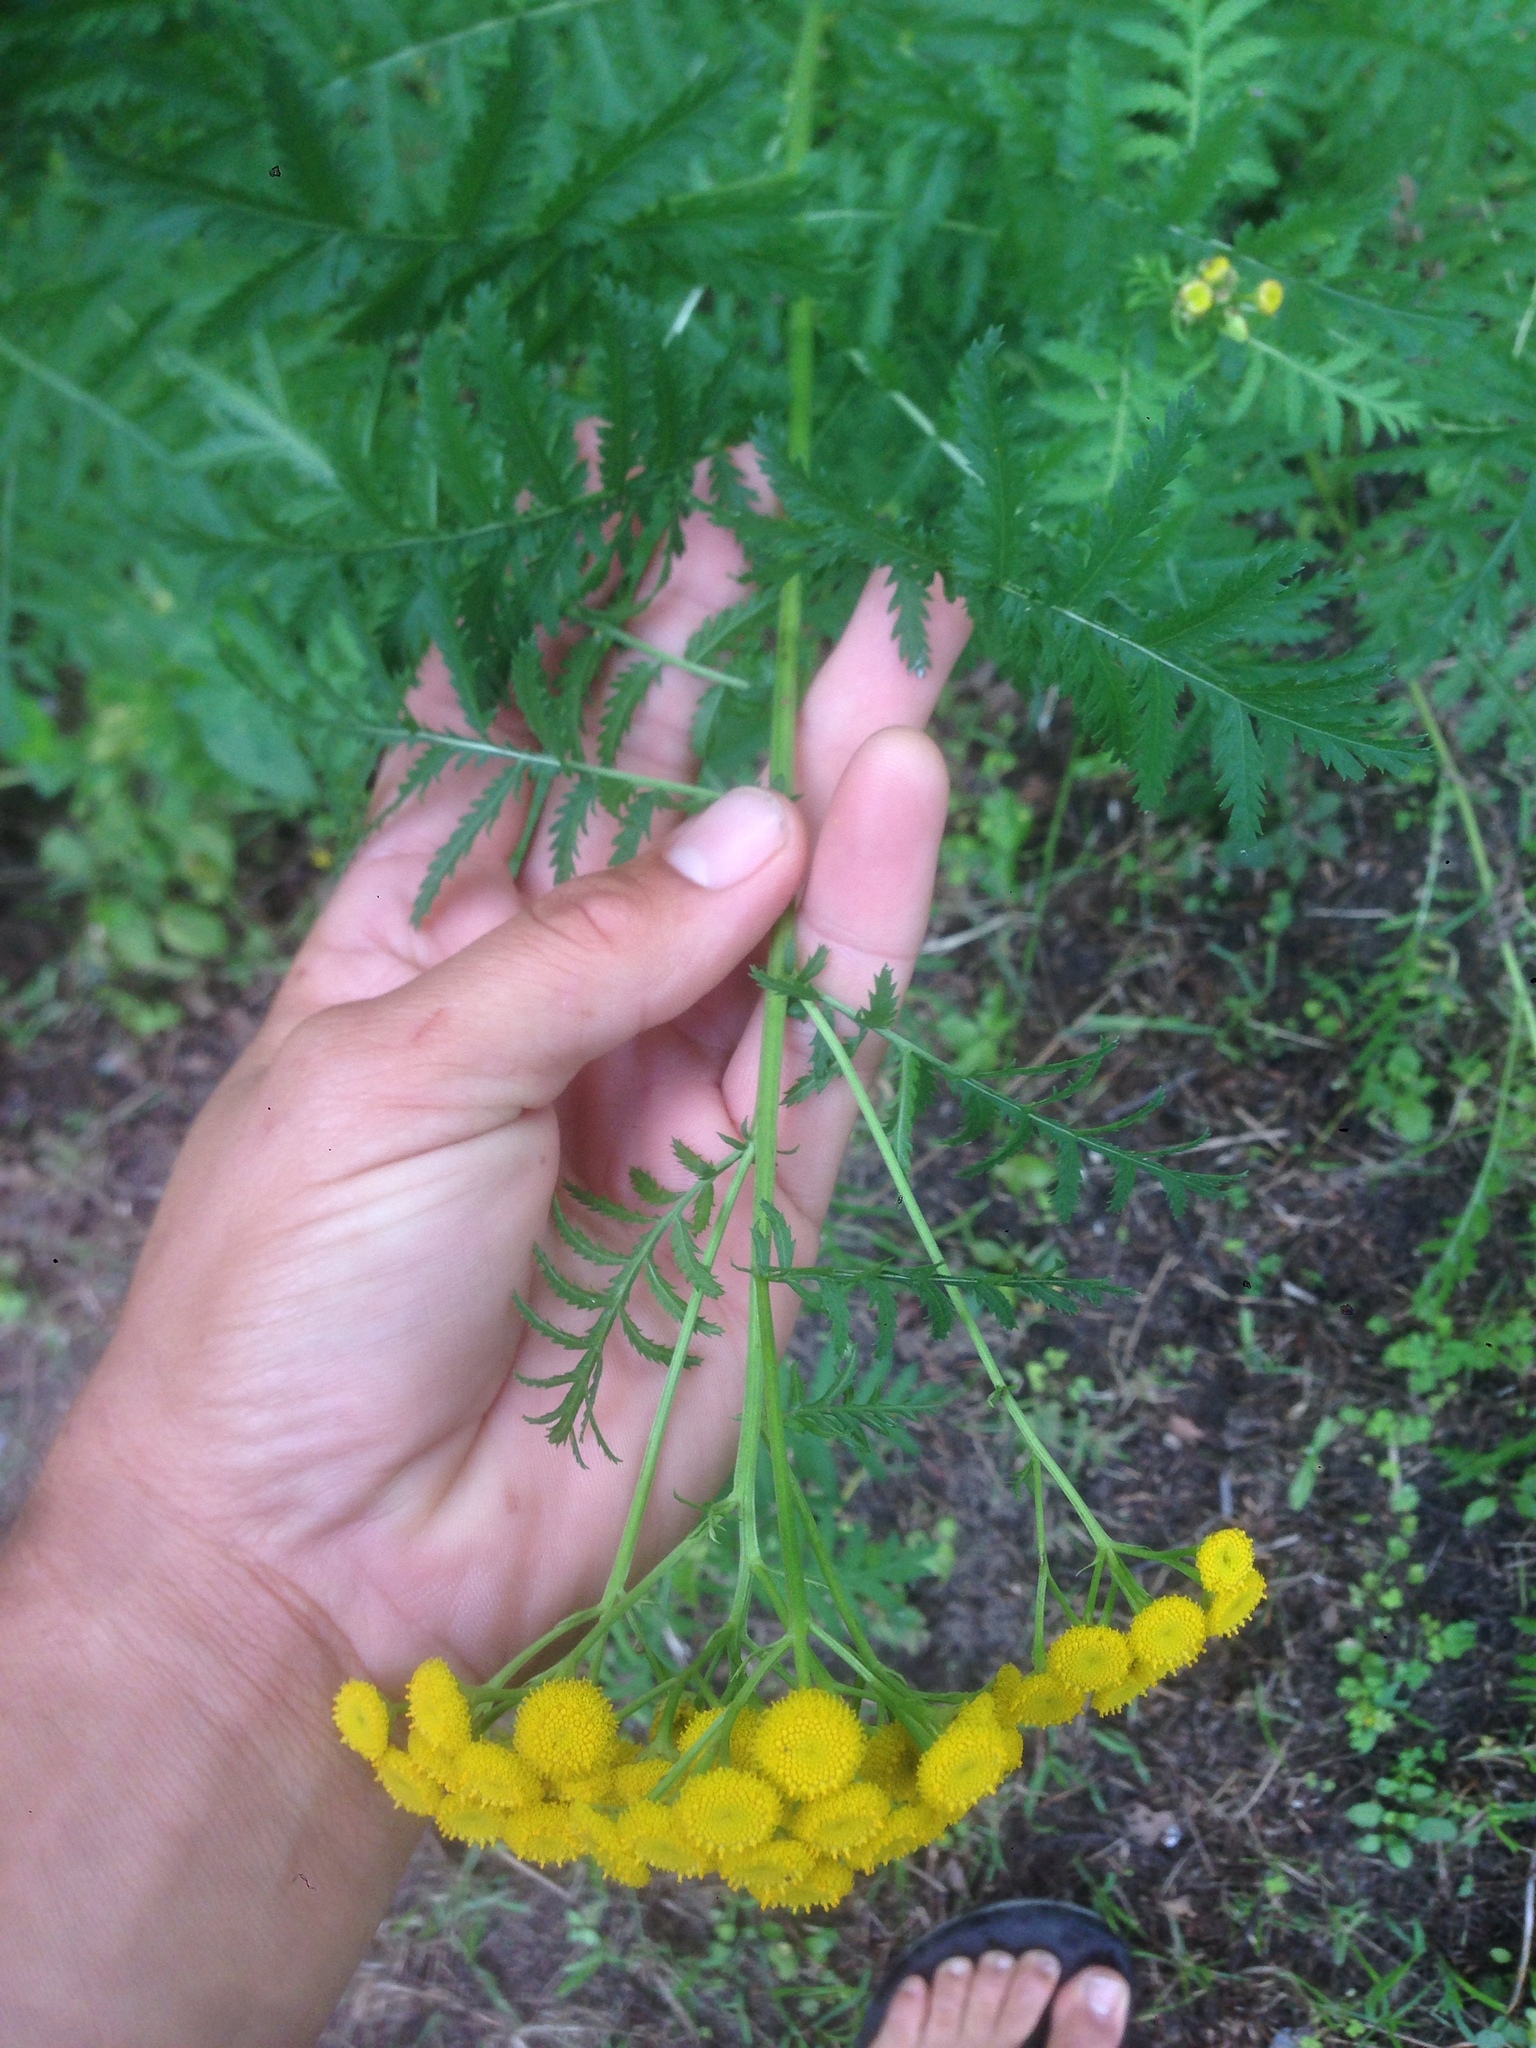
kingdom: Plantae
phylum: Tracheophyta
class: Magnoliopsida
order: Asterales
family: Asteraceae
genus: Tanacetum
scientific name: Tanacetum vulgare
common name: Common tansy
